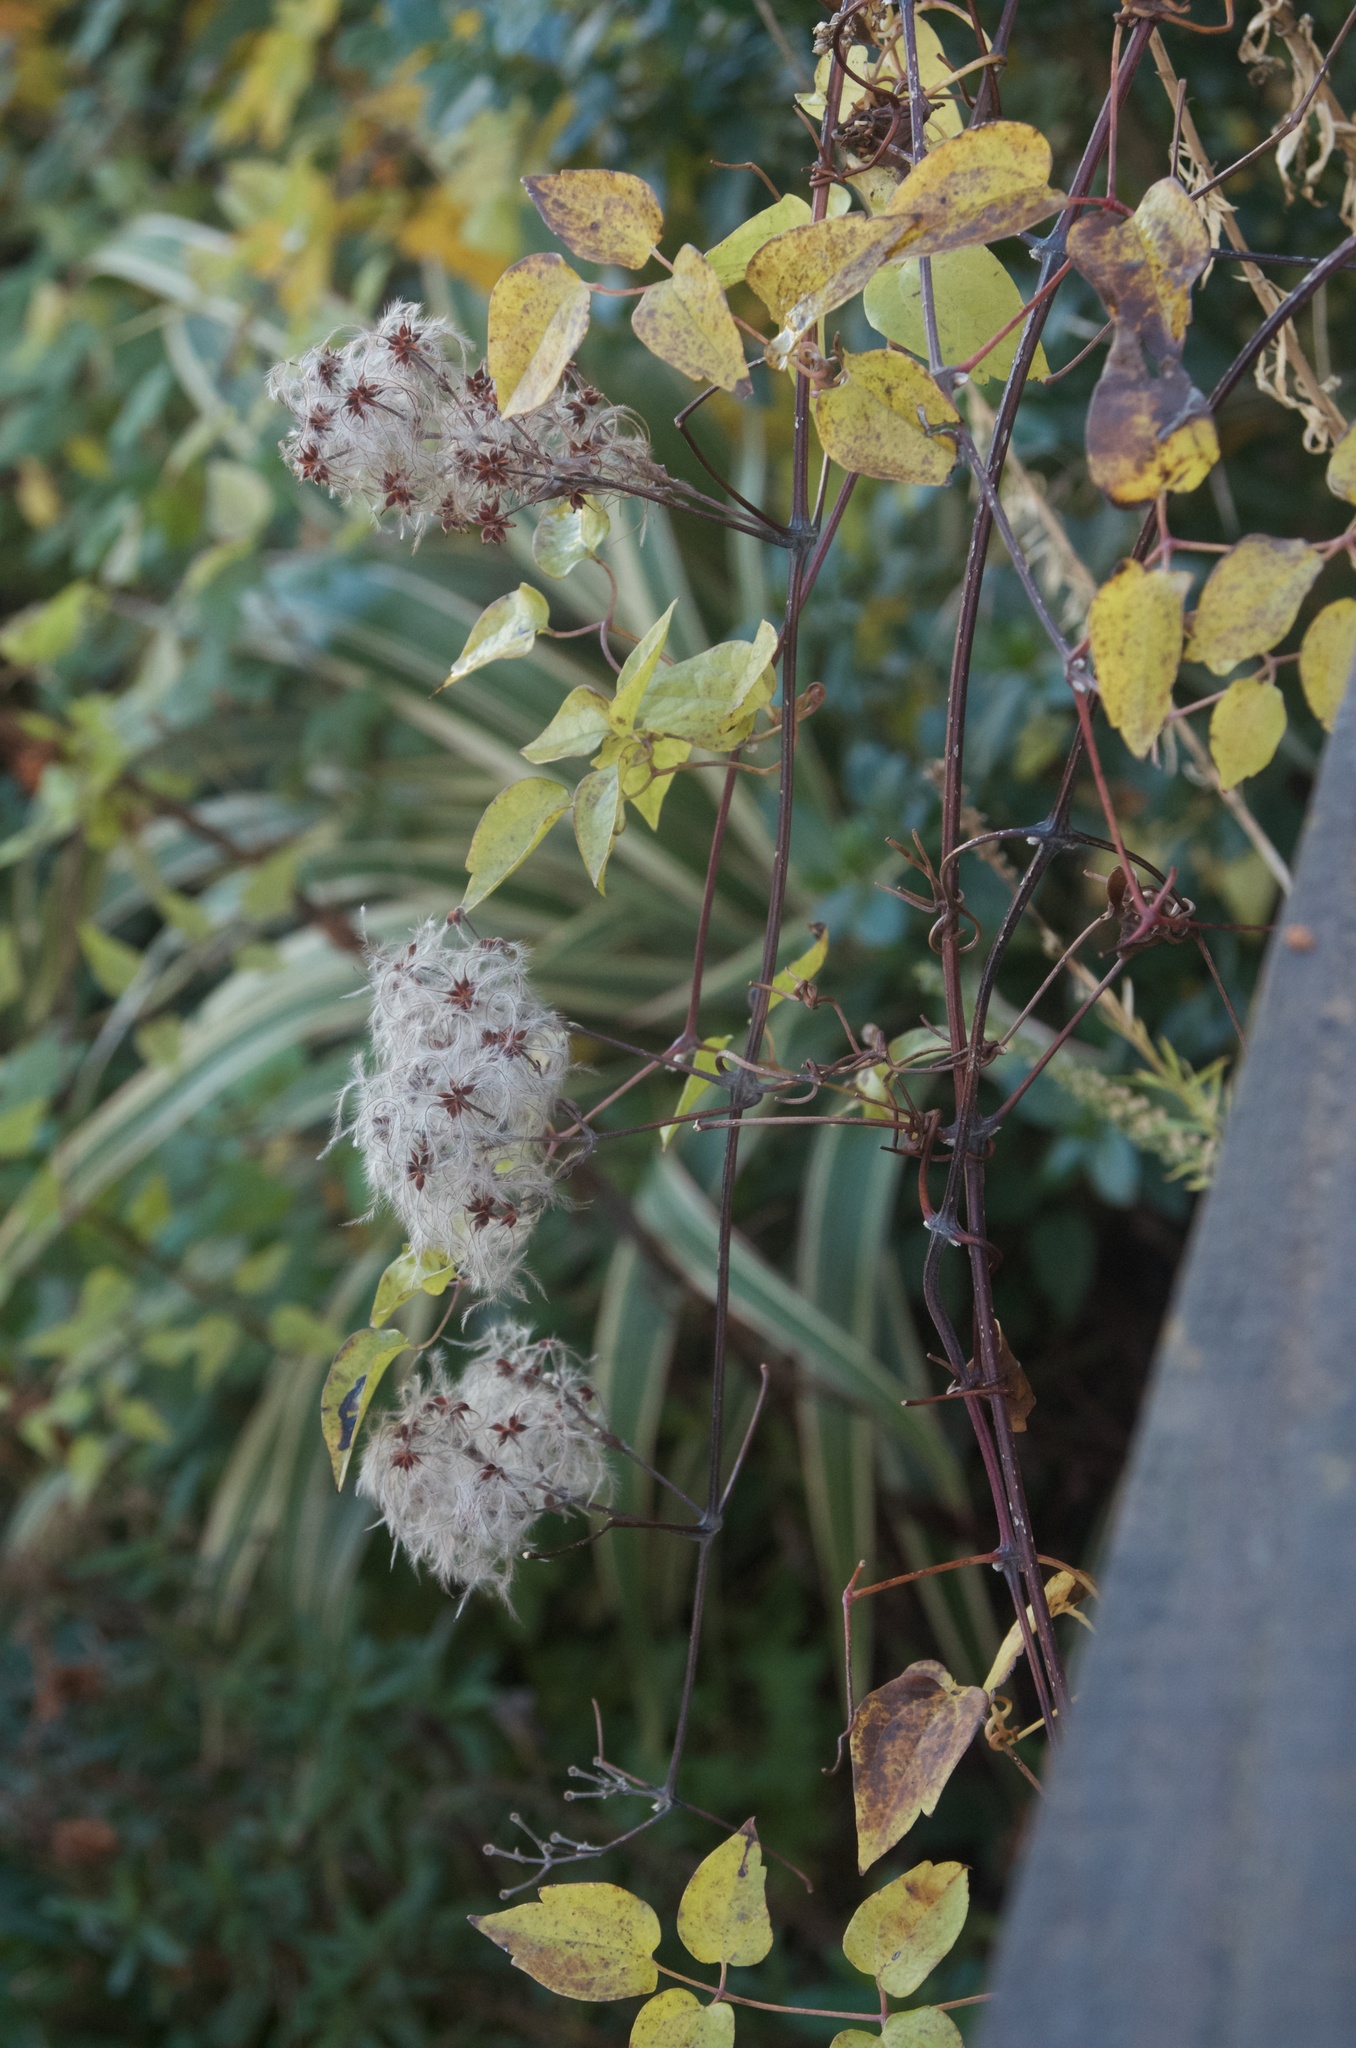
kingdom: Plantae
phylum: Tracheophyta
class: Magnoliopsida
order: Ranunculales
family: Ranunculaceae
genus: Clematis
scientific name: Clematis vitalba
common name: Evergreen clematis
